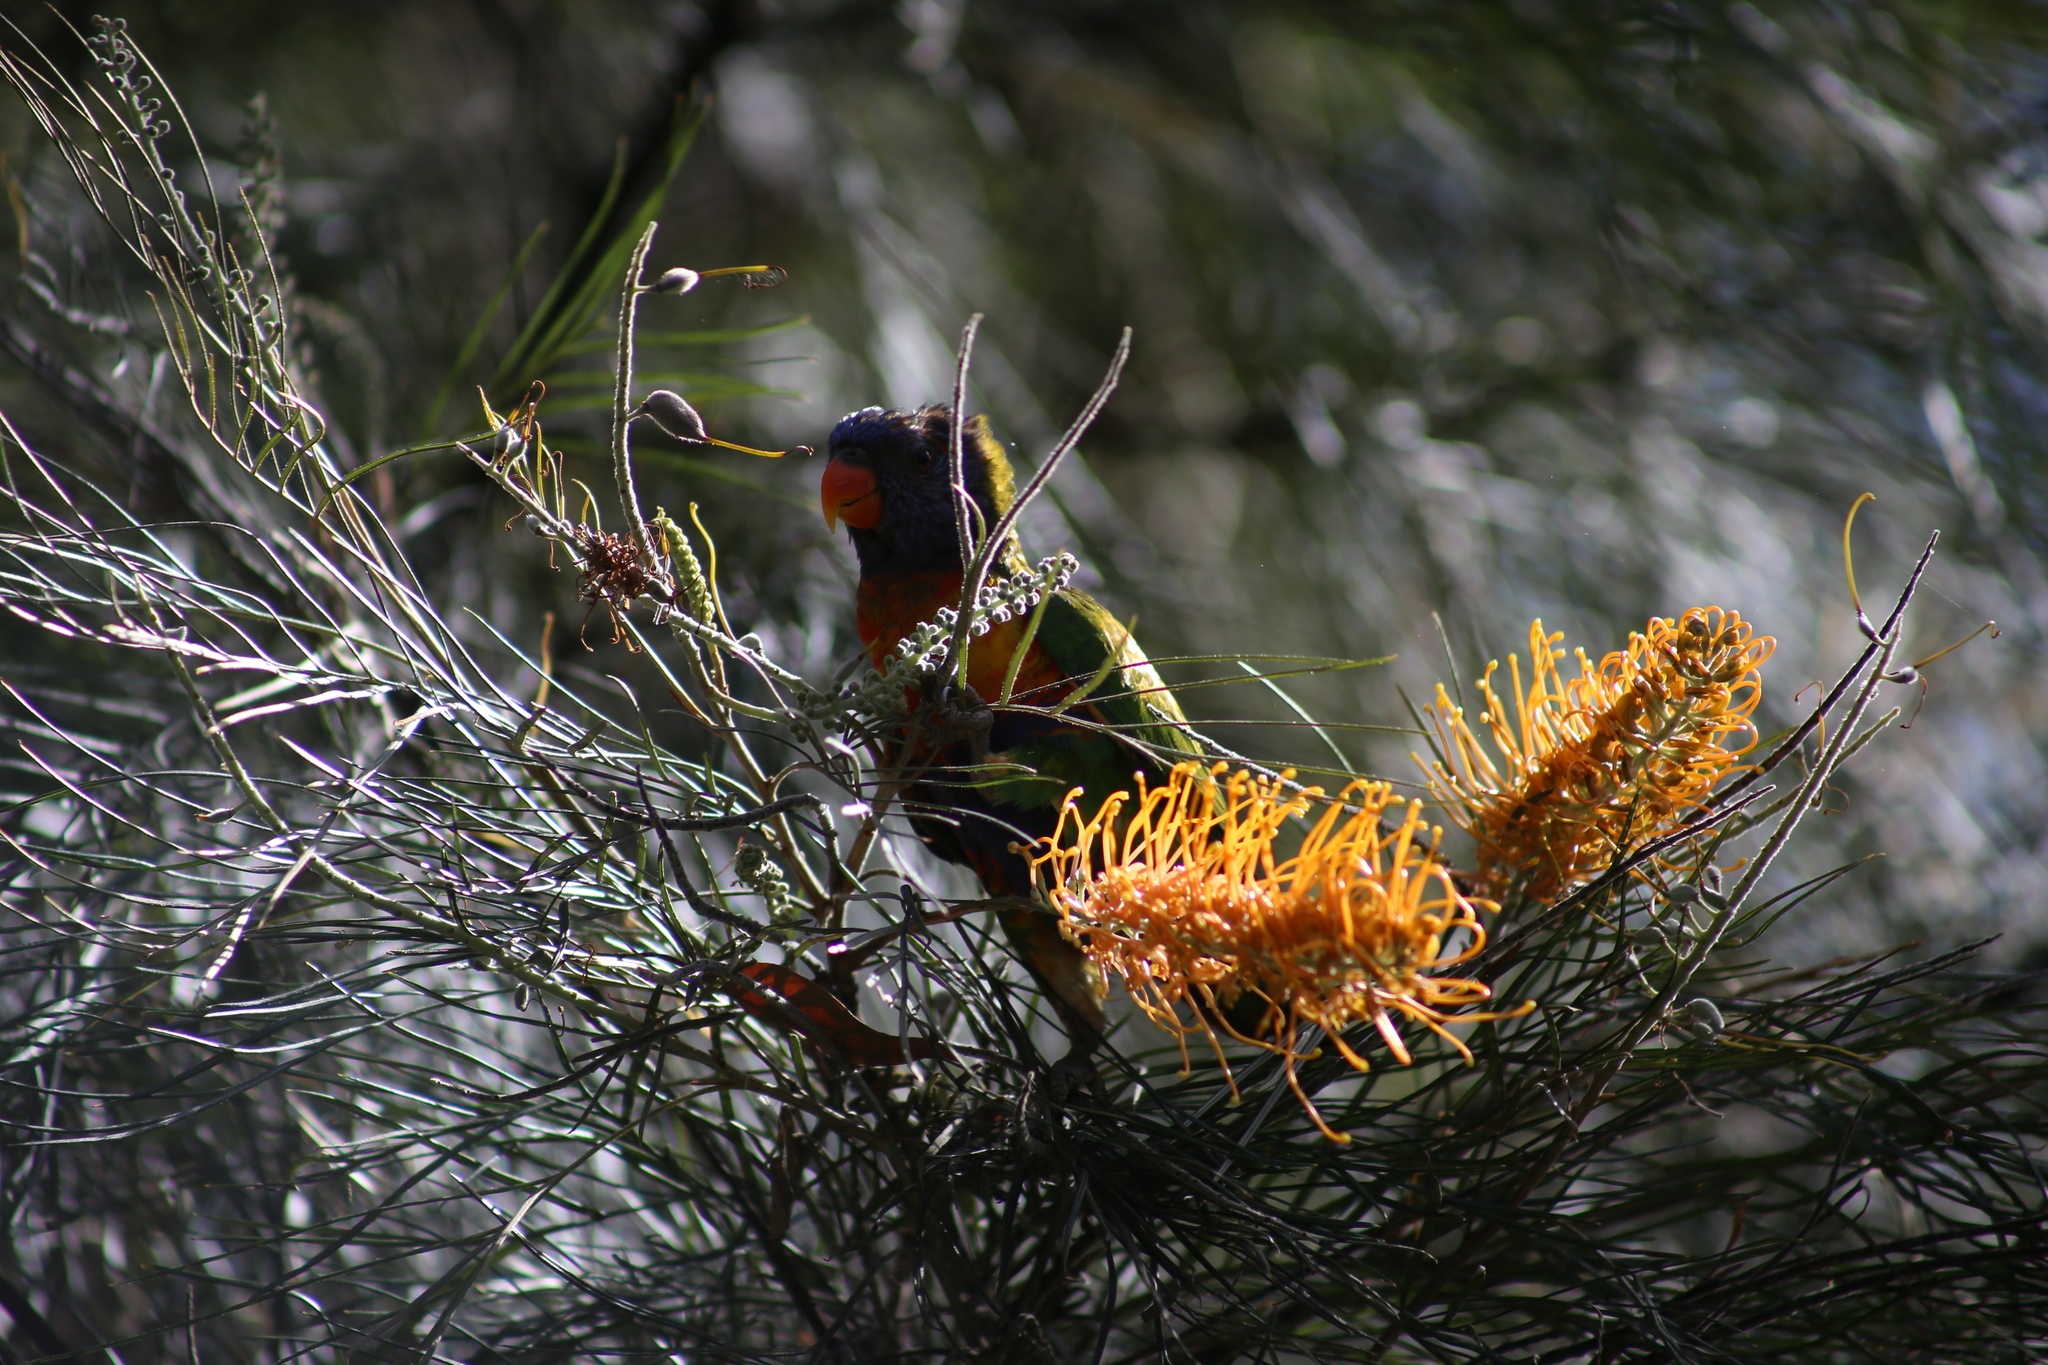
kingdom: Animalia
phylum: Chordata
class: Aves
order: Psittaciformes
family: Psittacidae
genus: Trichoglossus
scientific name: Trichoglossus haematodus
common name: Coconut lorikeet
